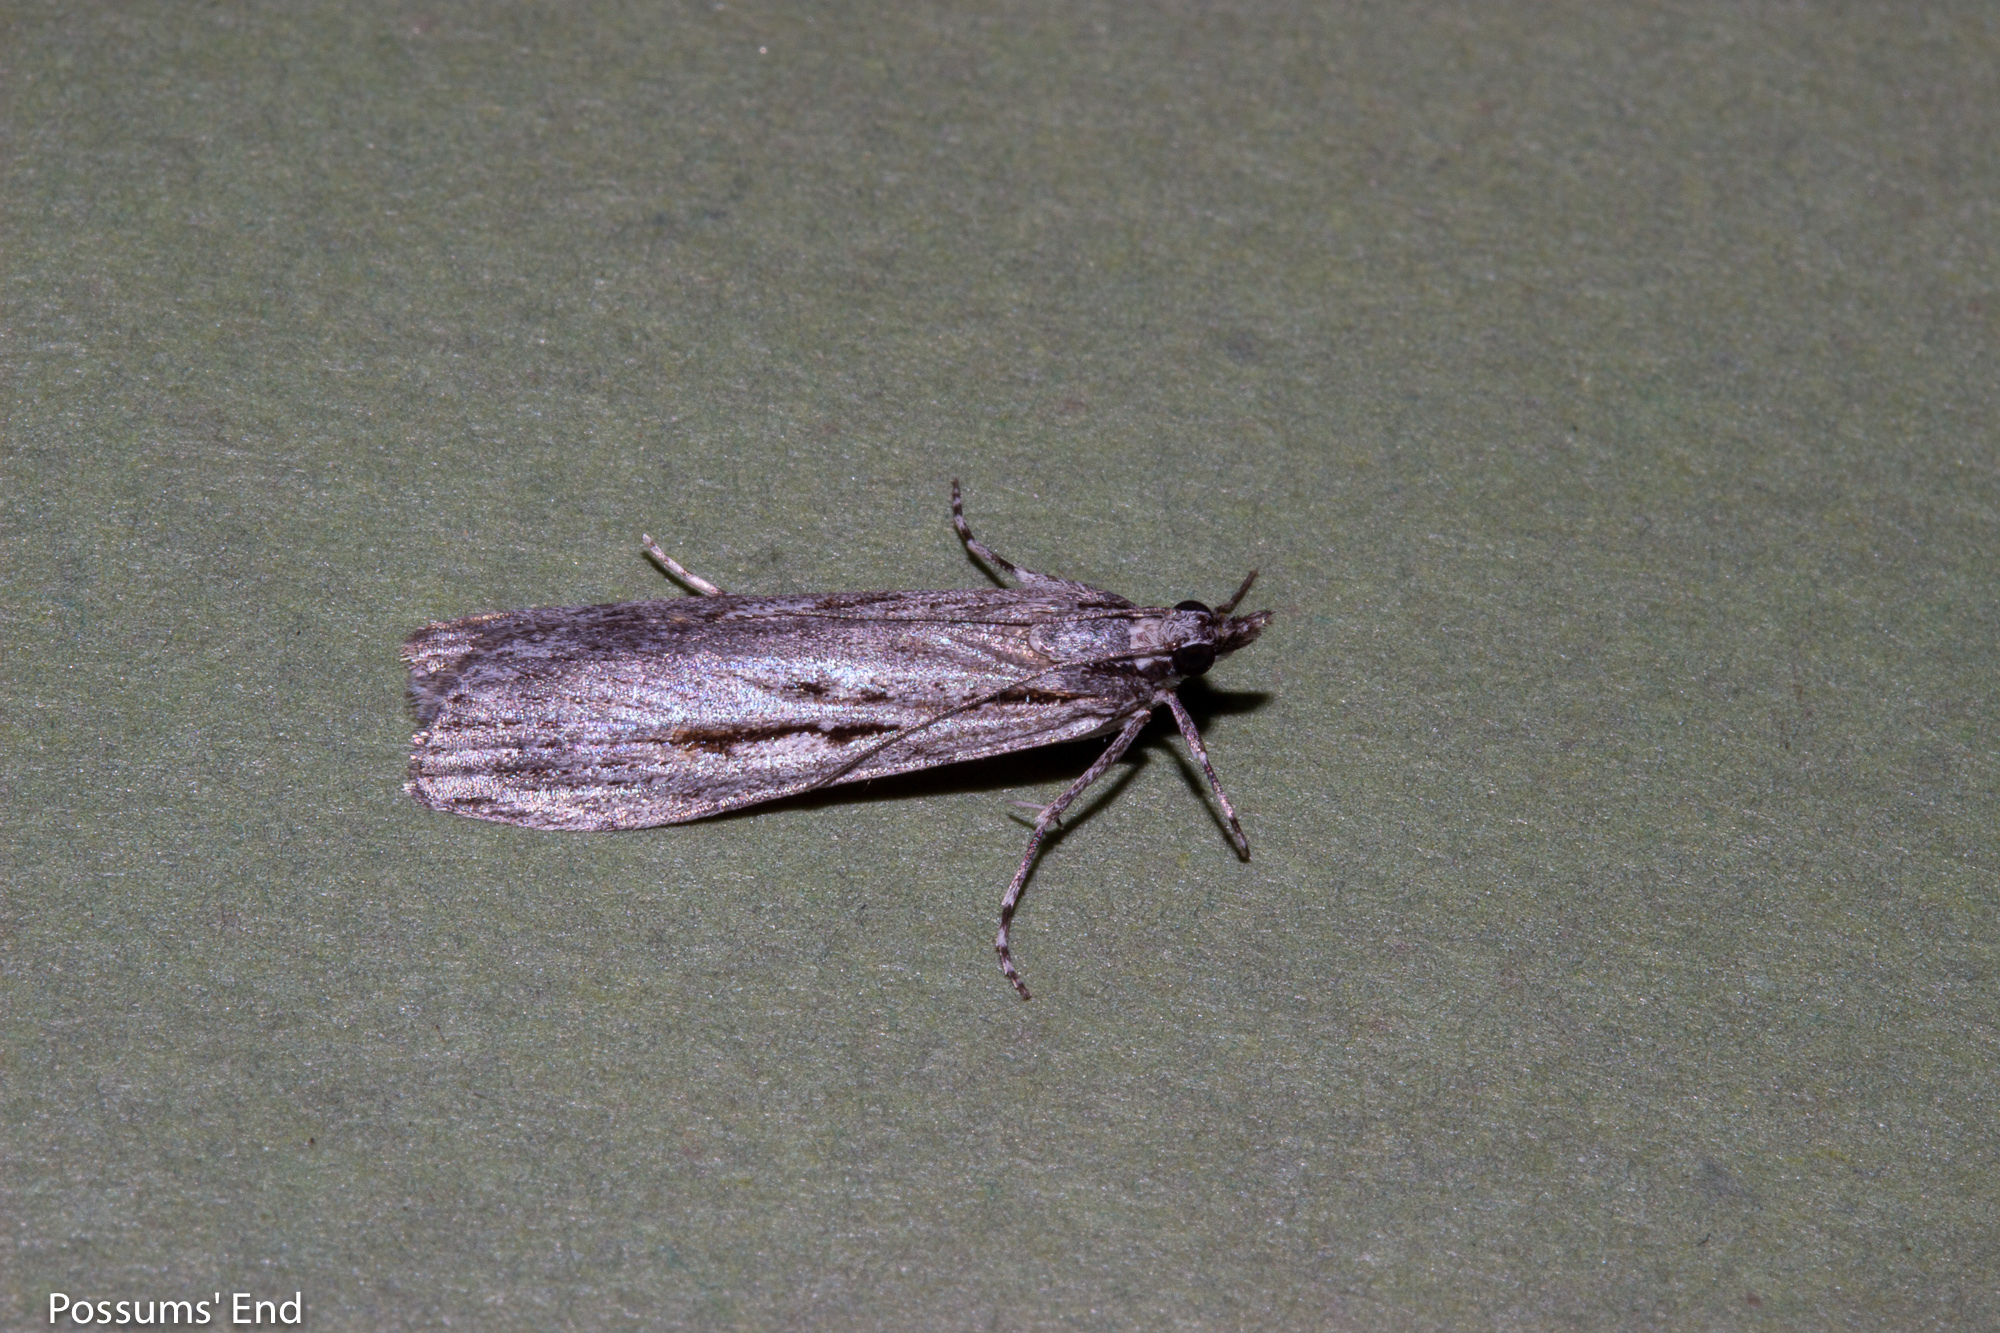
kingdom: Animalia
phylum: Arthropoda
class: Insecta
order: Lepidoptera
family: Crambidae
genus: Scoparia
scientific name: Scoparia indistinctalis
